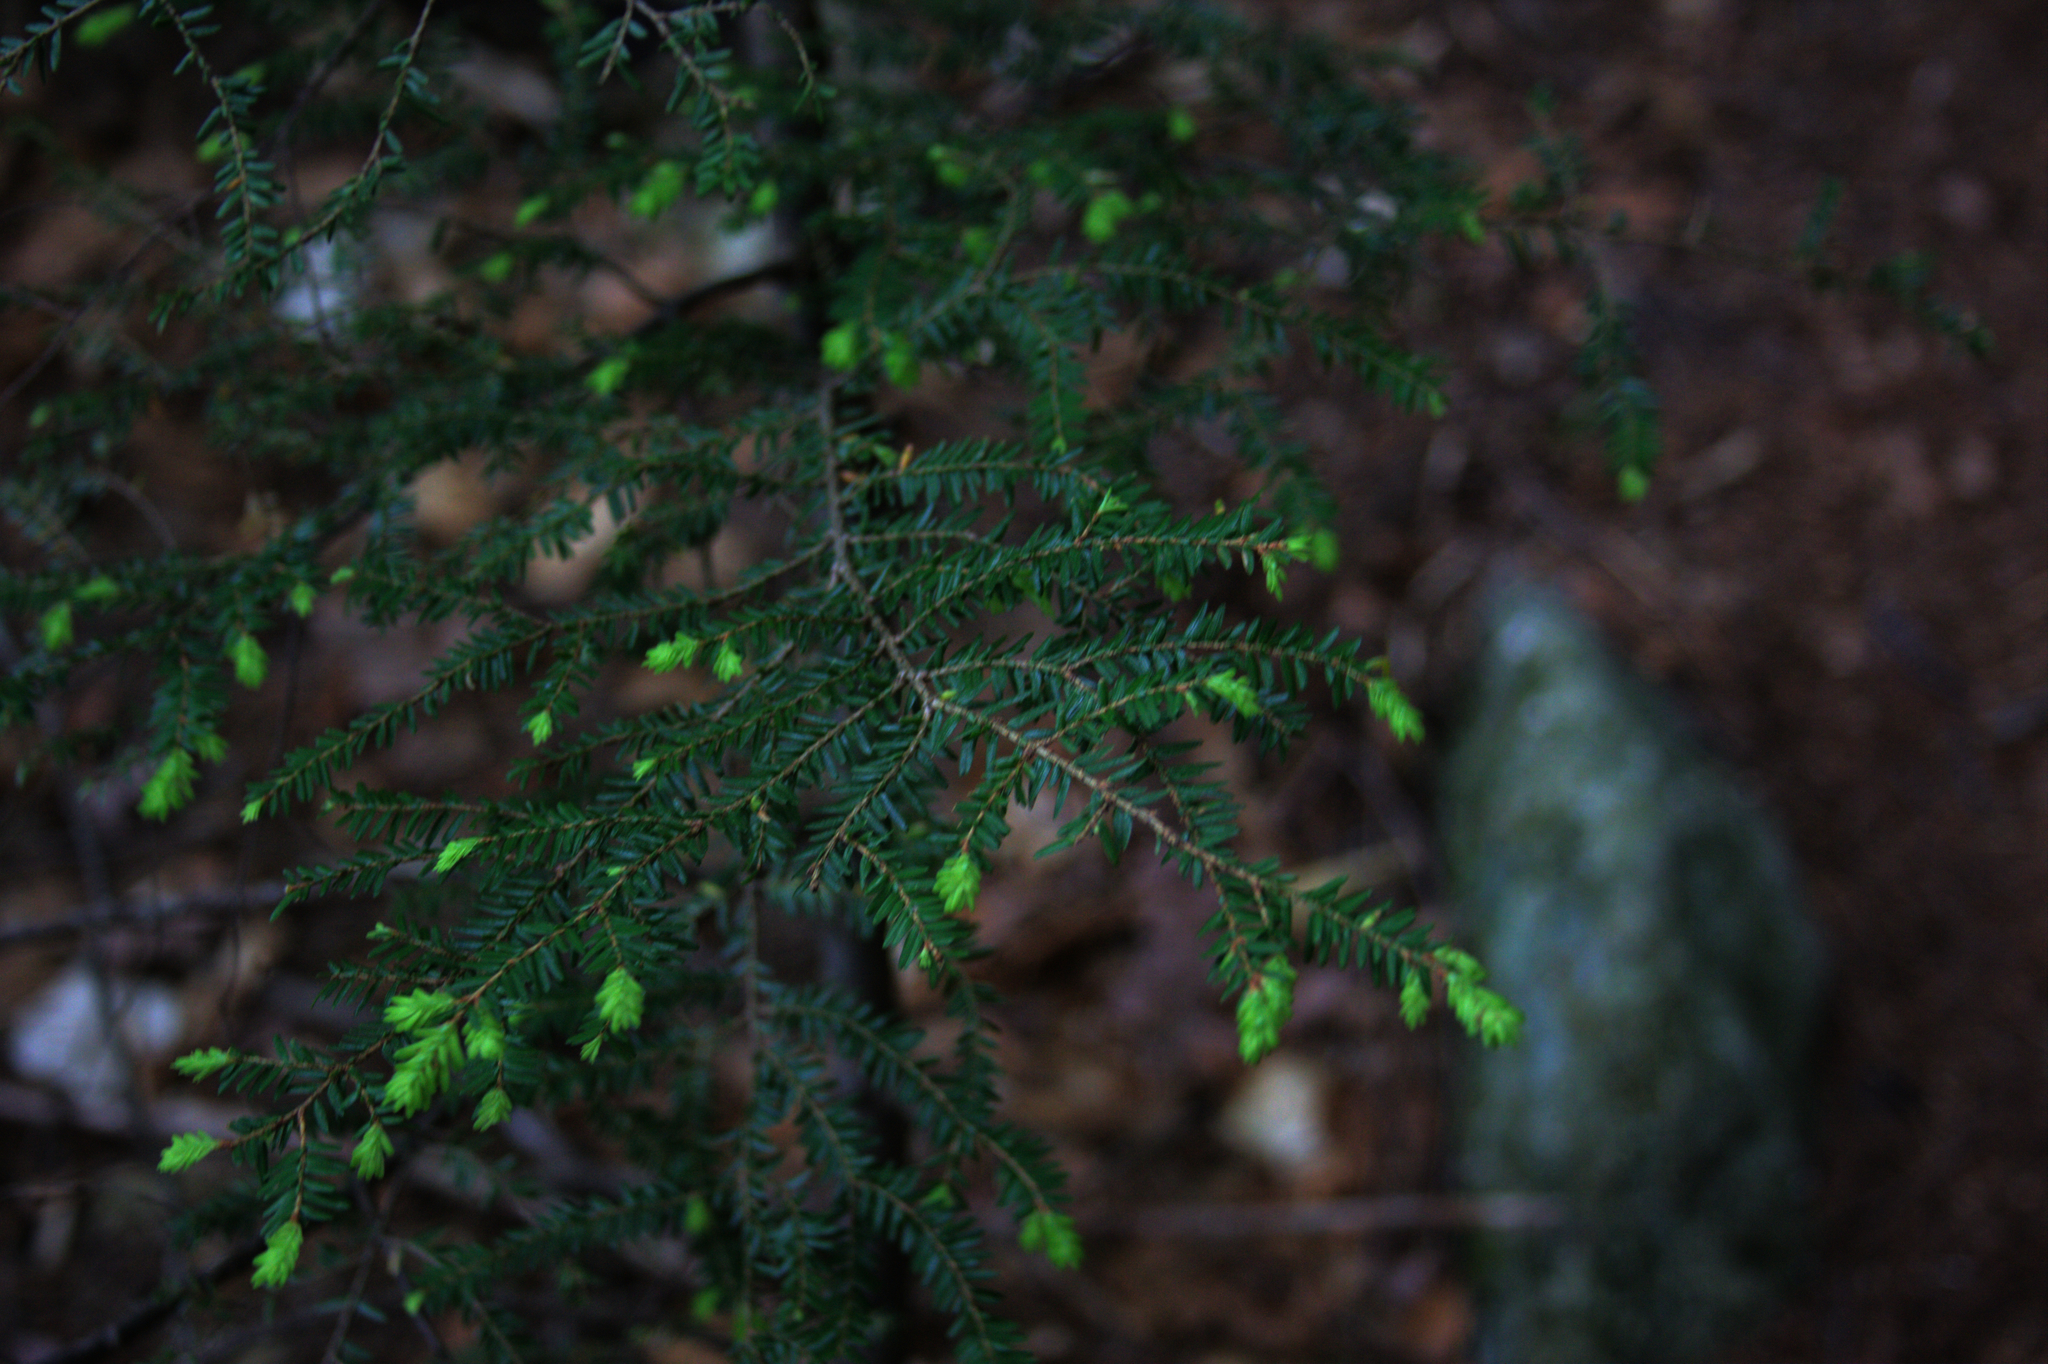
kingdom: Plantae
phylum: Tracheophyta
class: Pinopsida
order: Pinales
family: Pinaceae
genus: Tsuga
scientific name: Tsuga canadensis
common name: Eastern hemlock
